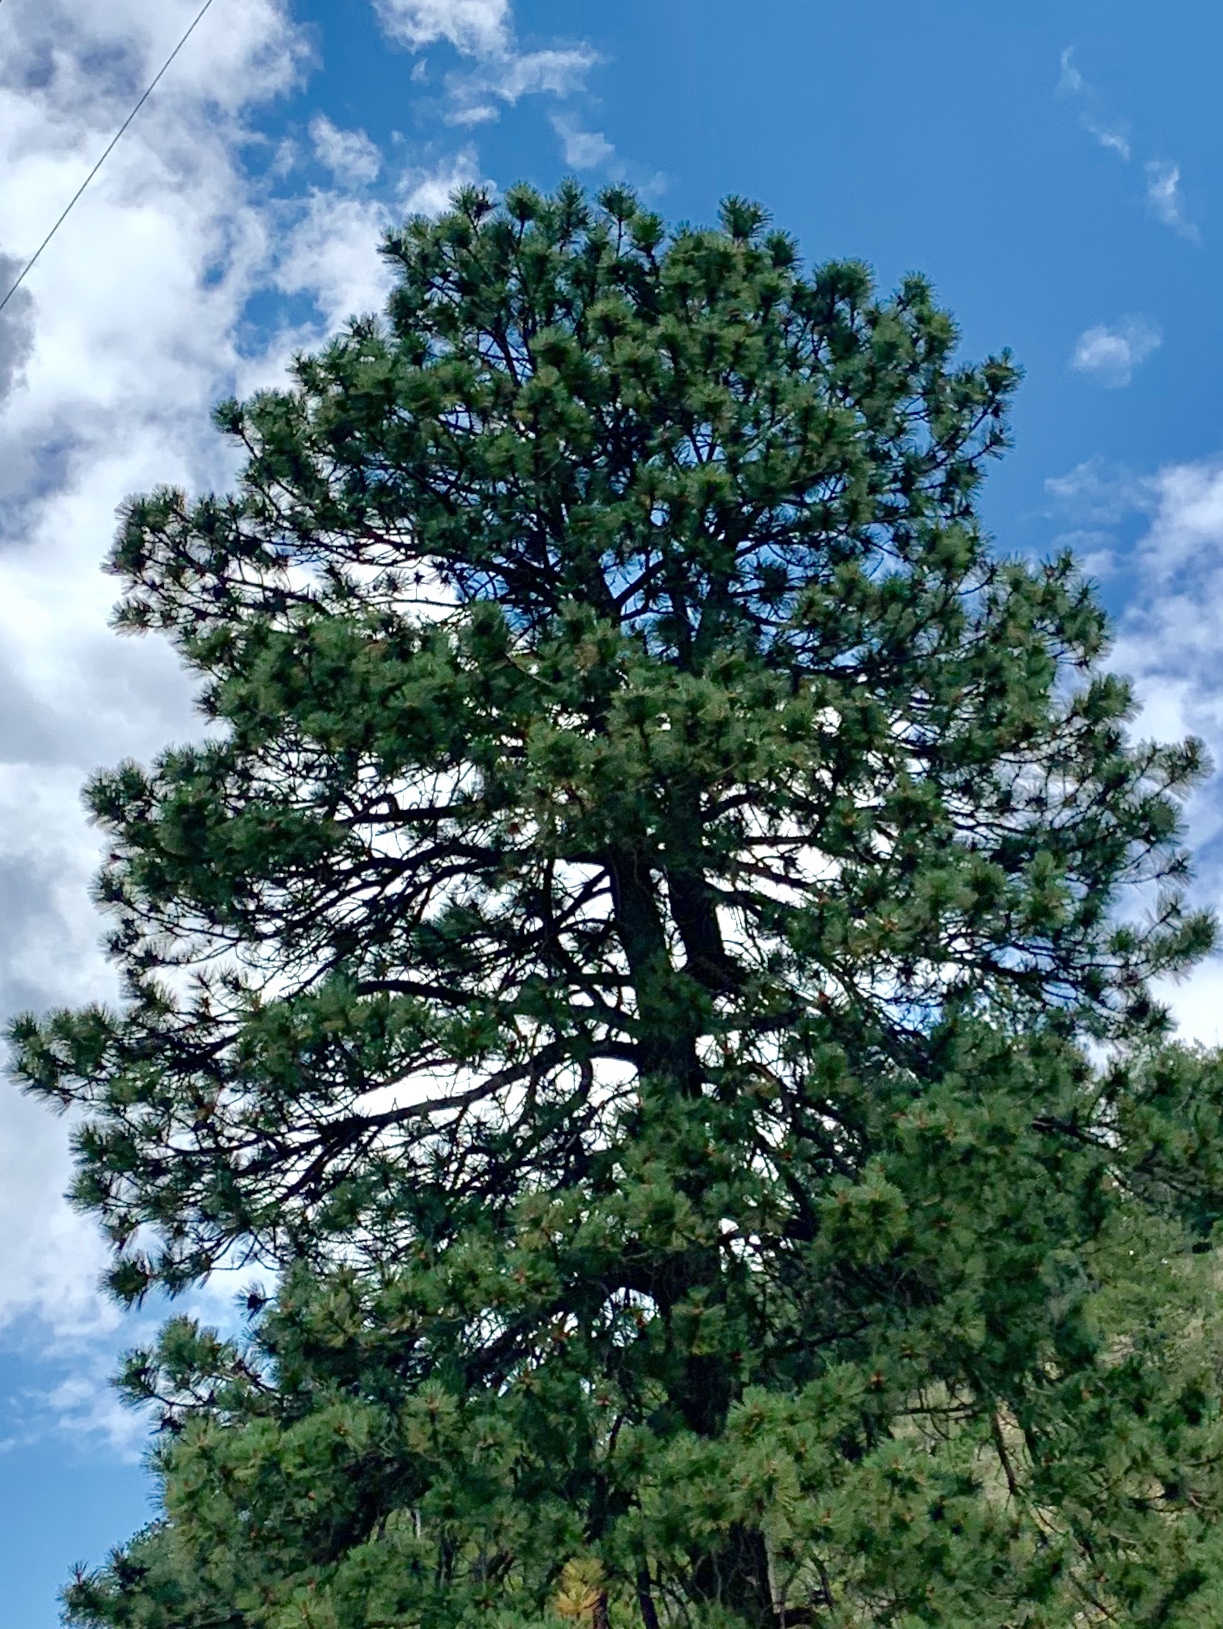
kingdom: Plantae
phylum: Tracheophyta
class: Pinopsida
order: Pinales
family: Pinaceae
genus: Pinus
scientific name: Pinus ponderosa
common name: Western yellow-pine
